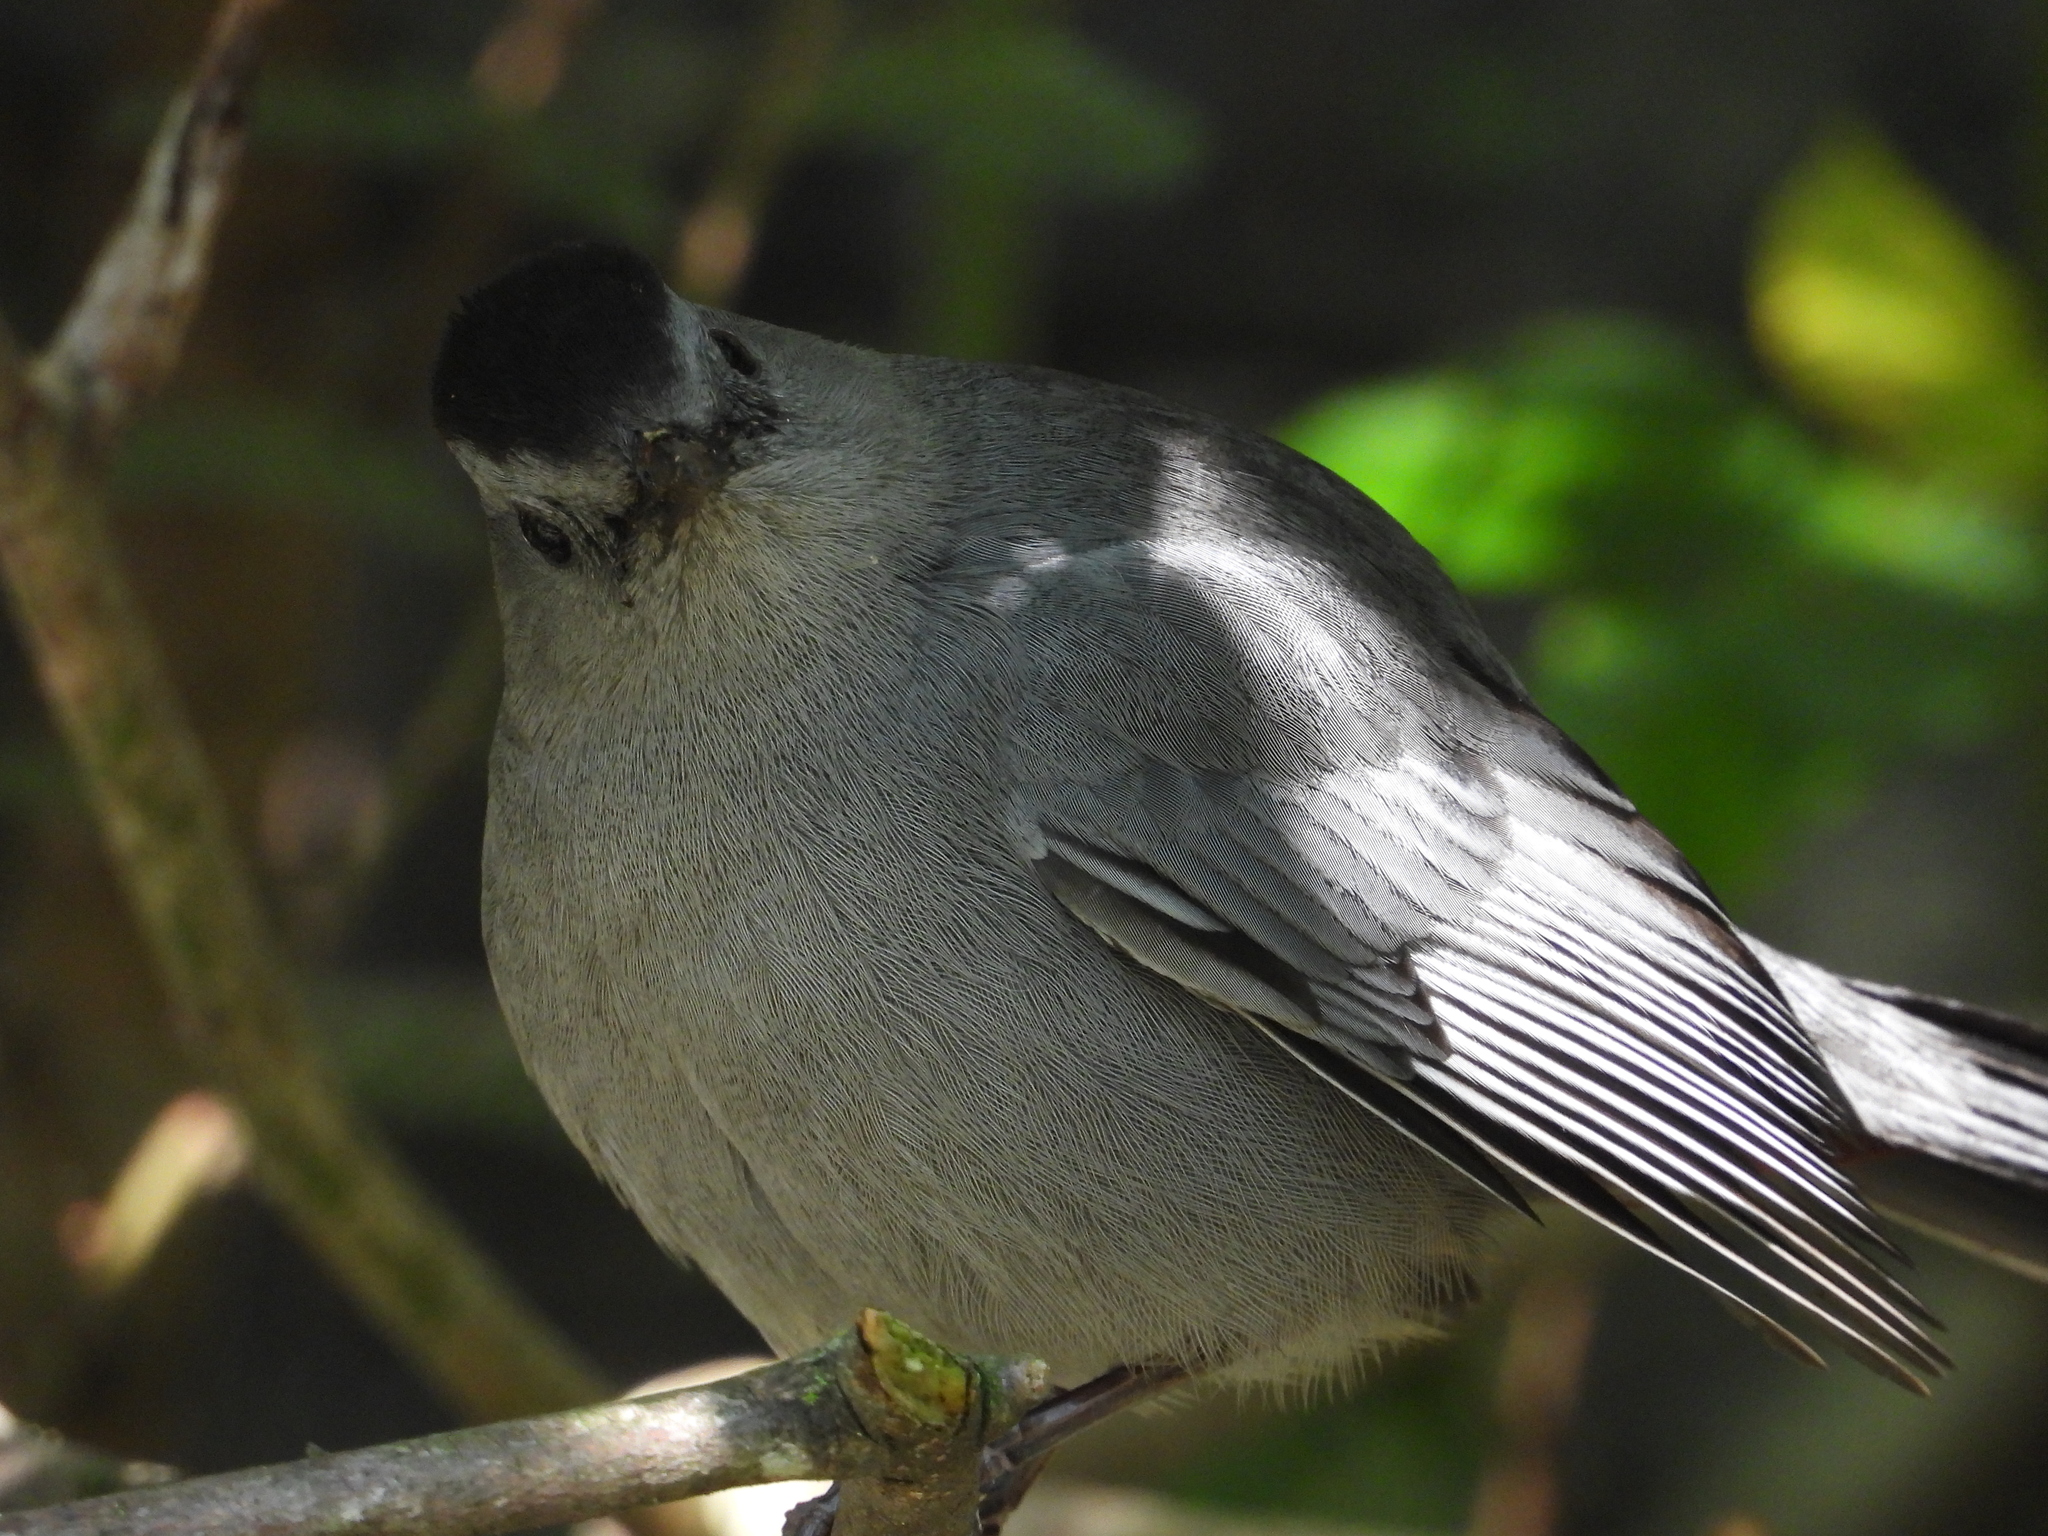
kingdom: Animalia
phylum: Chordata
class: Aves
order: Passeriformes
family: Mimidae
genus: Dumetella
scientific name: Dumetella carolinensis
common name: Gray catbird
